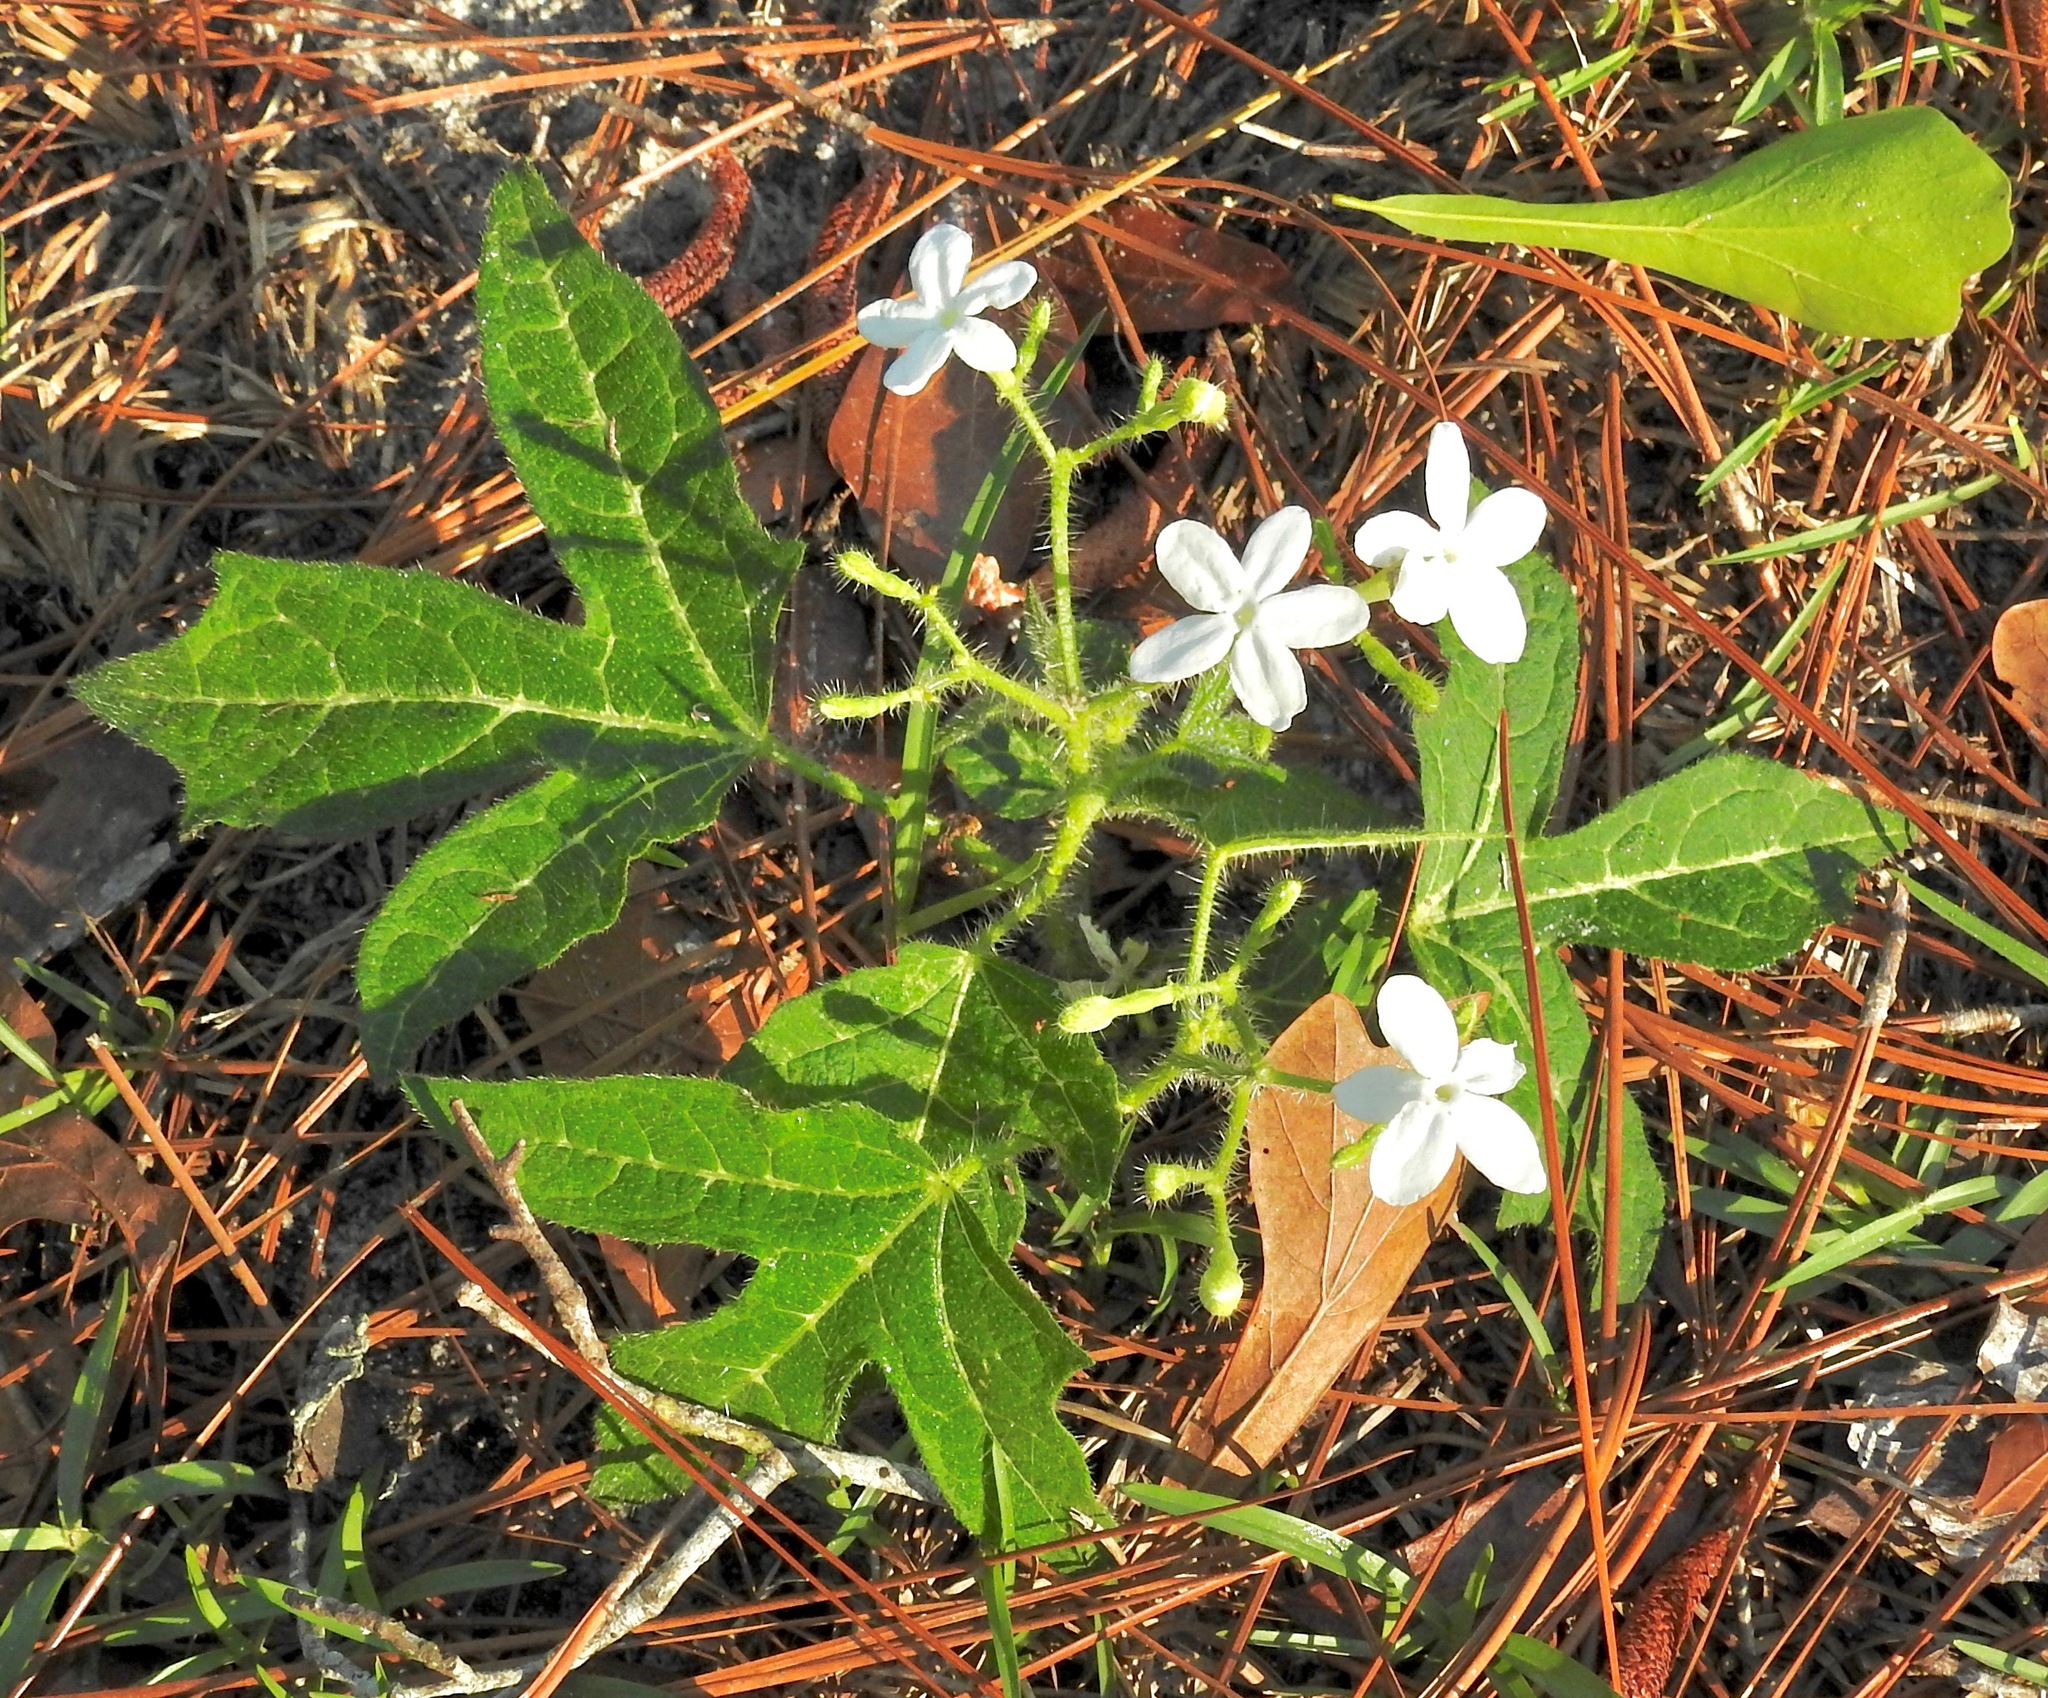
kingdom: Plantae
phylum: Tracheophyta
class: Magnoliopsida
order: Malpighiales
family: Euphorbiaceae
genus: Cnidoscolus
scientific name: Cnidoscolus stimulosus
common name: Bull-nettle
